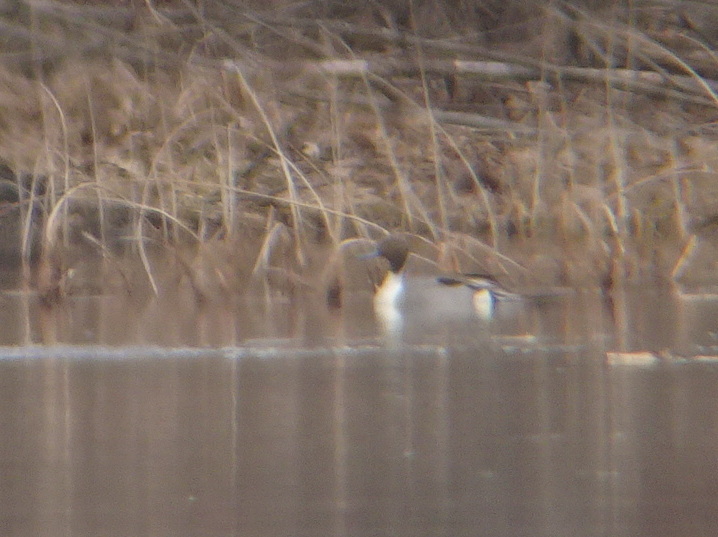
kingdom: Animalia
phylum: Chordata
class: Aves
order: Anseriformes
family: Anatidae
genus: Anas
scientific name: Anas acuta
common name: Northern pintail
